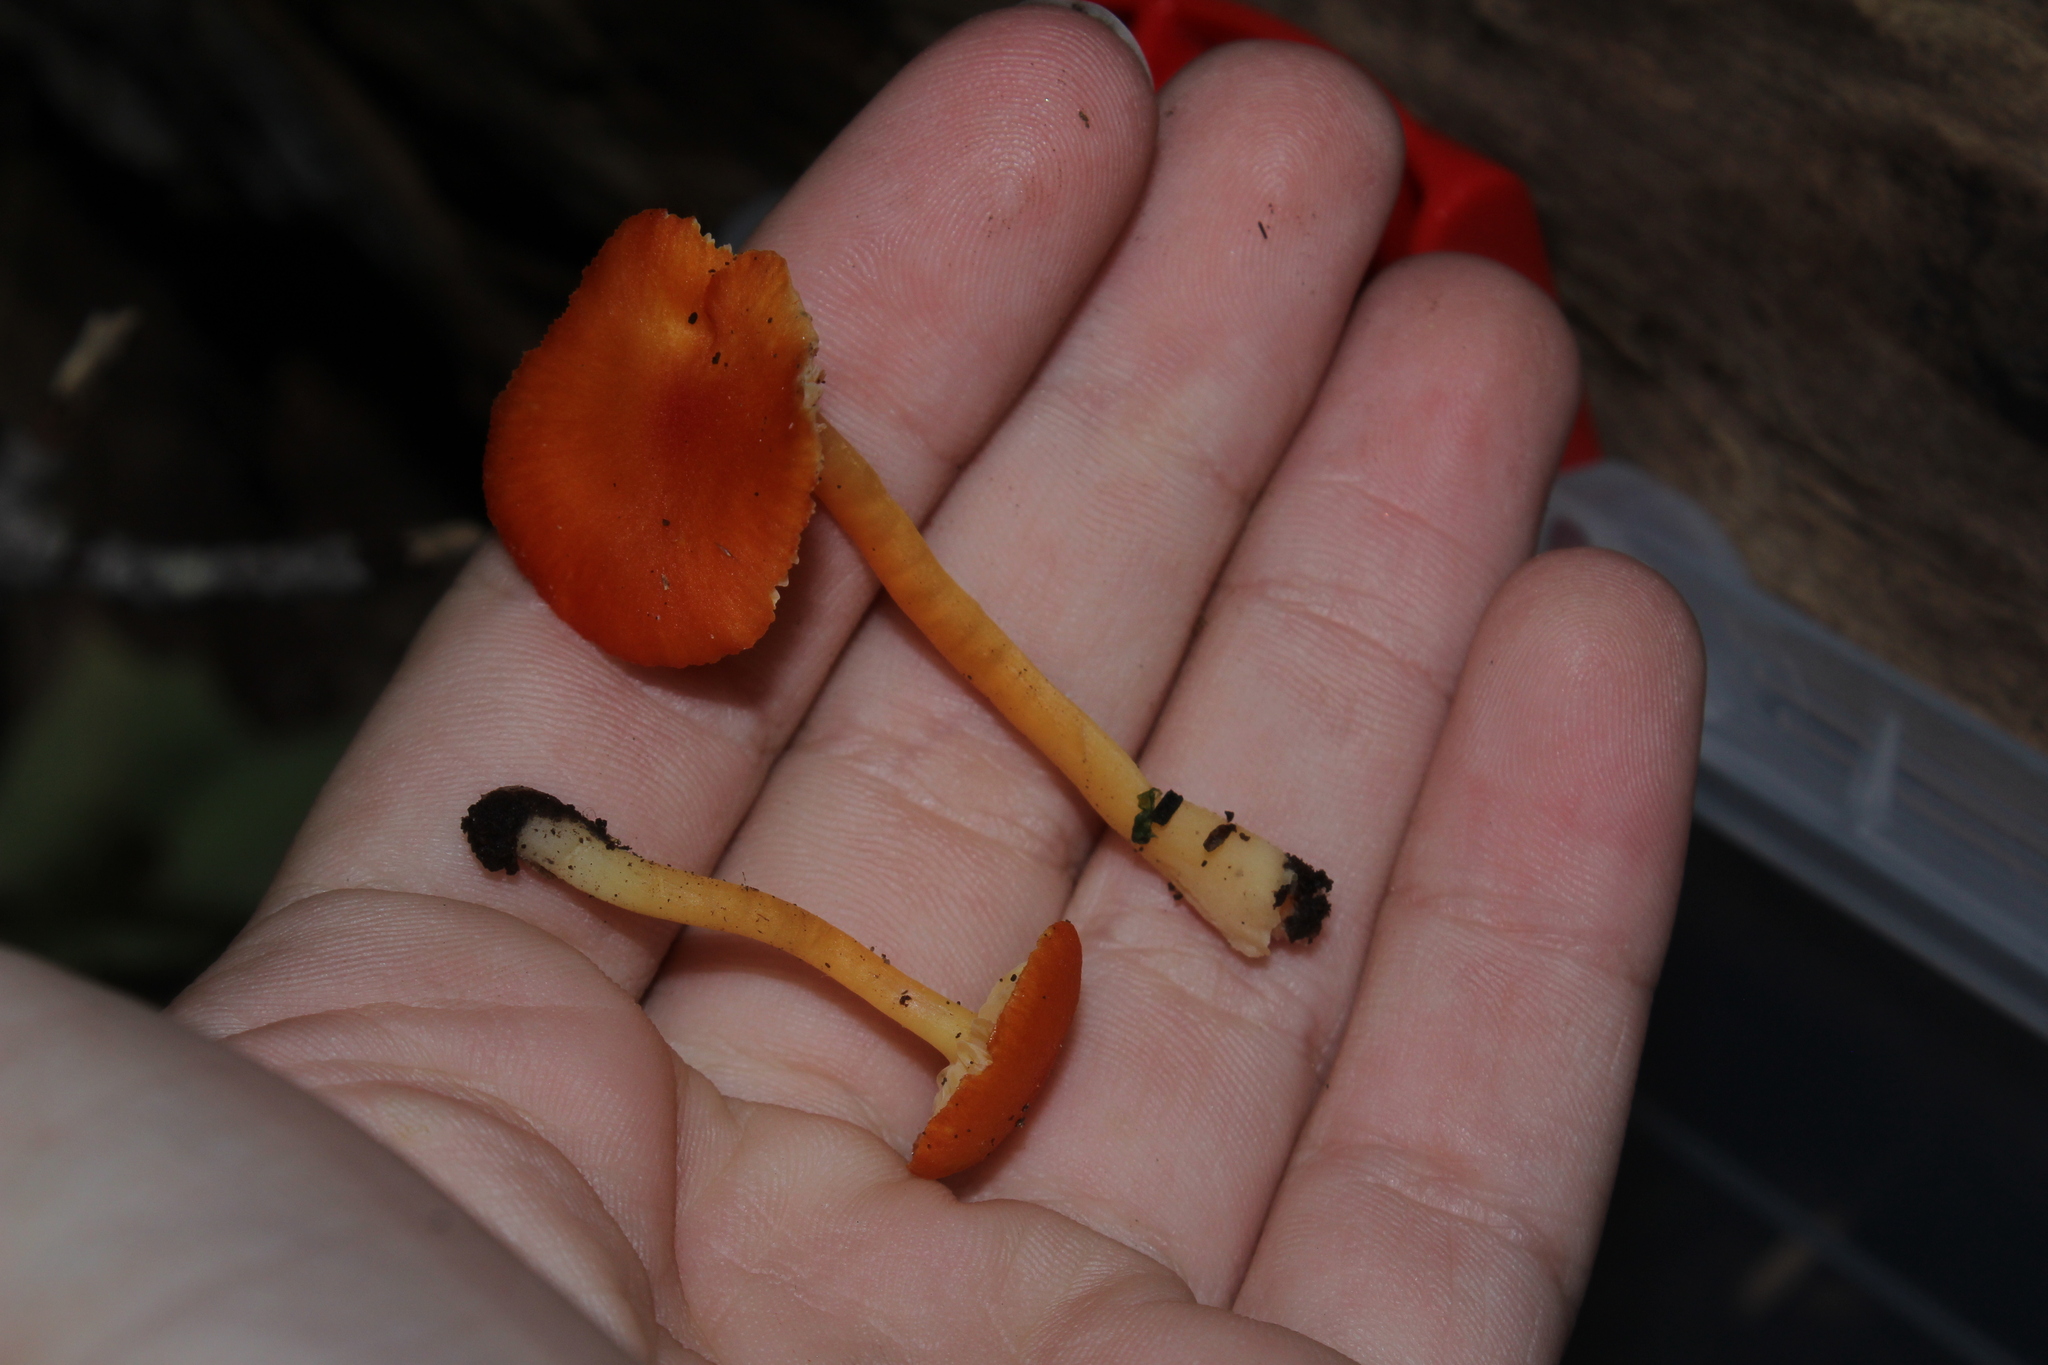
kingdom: Fungi
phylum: Basidiomycota
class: Agaricomycetes
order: Agaricales
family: Hygrophoraceae
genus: Hygrocybe
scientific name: Hygrocybe miniata
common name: Vermilion waxcap
